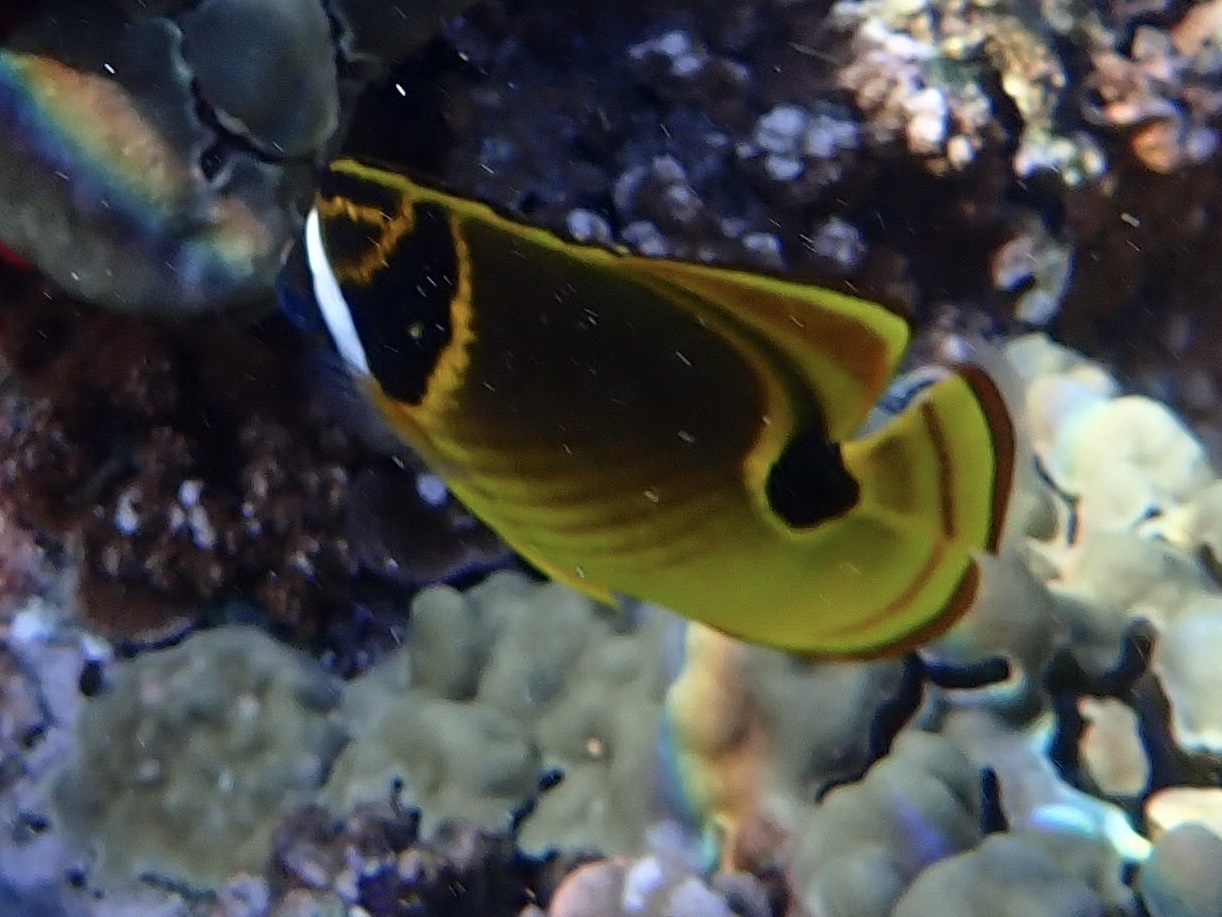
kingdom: Animalia
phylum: Chordata
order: Perciformes
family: Chaetodontidae
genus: Chaetodon
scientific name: Chaetodon lunula
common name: Raccoon butterflyfish
